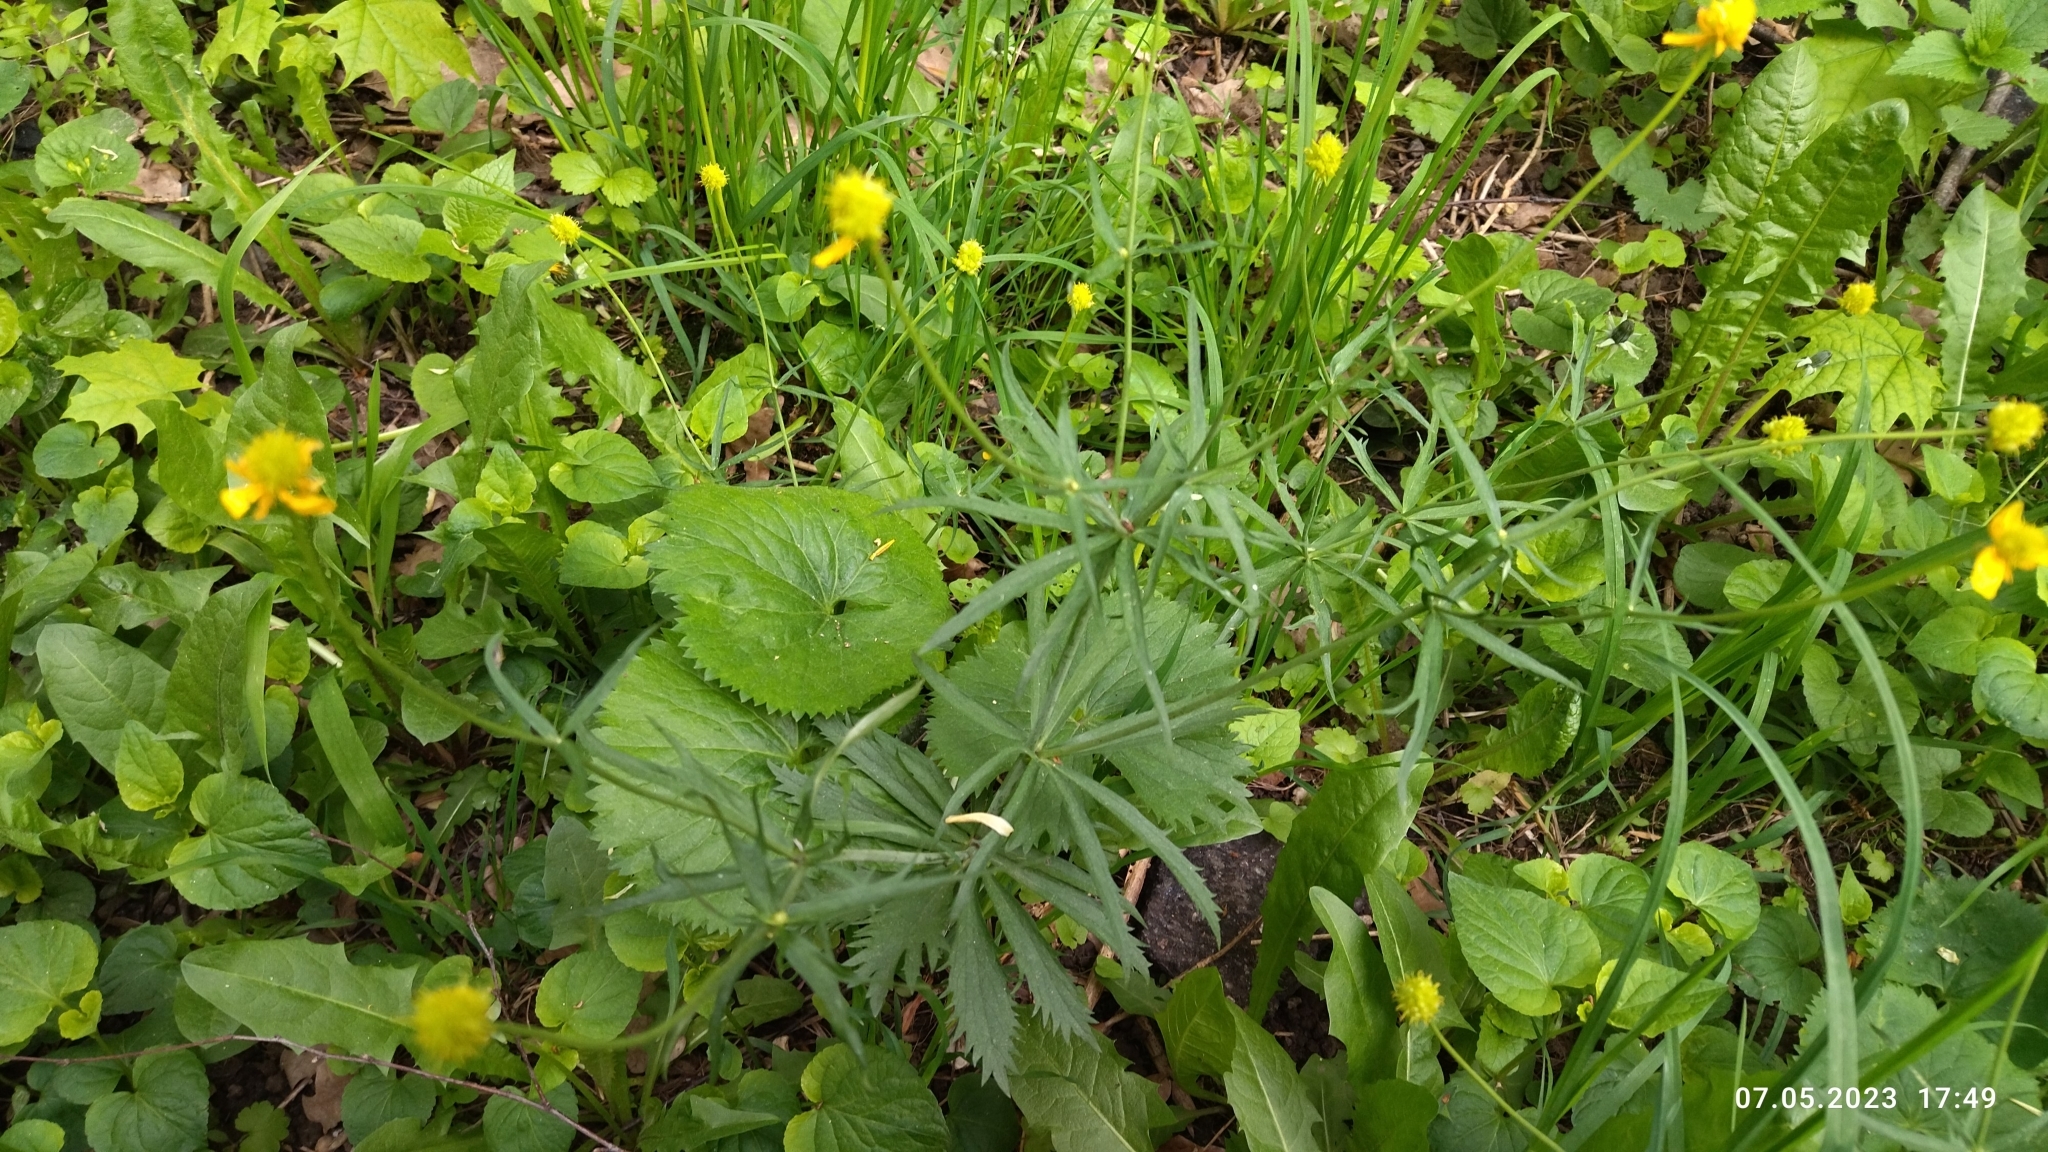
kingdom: Plantae
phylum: Tracheophyta
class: Magnoliopsida
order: Ranunculales
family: Ranunculaceae
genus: Ranunculus
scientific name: Ranunculus cassubicus
